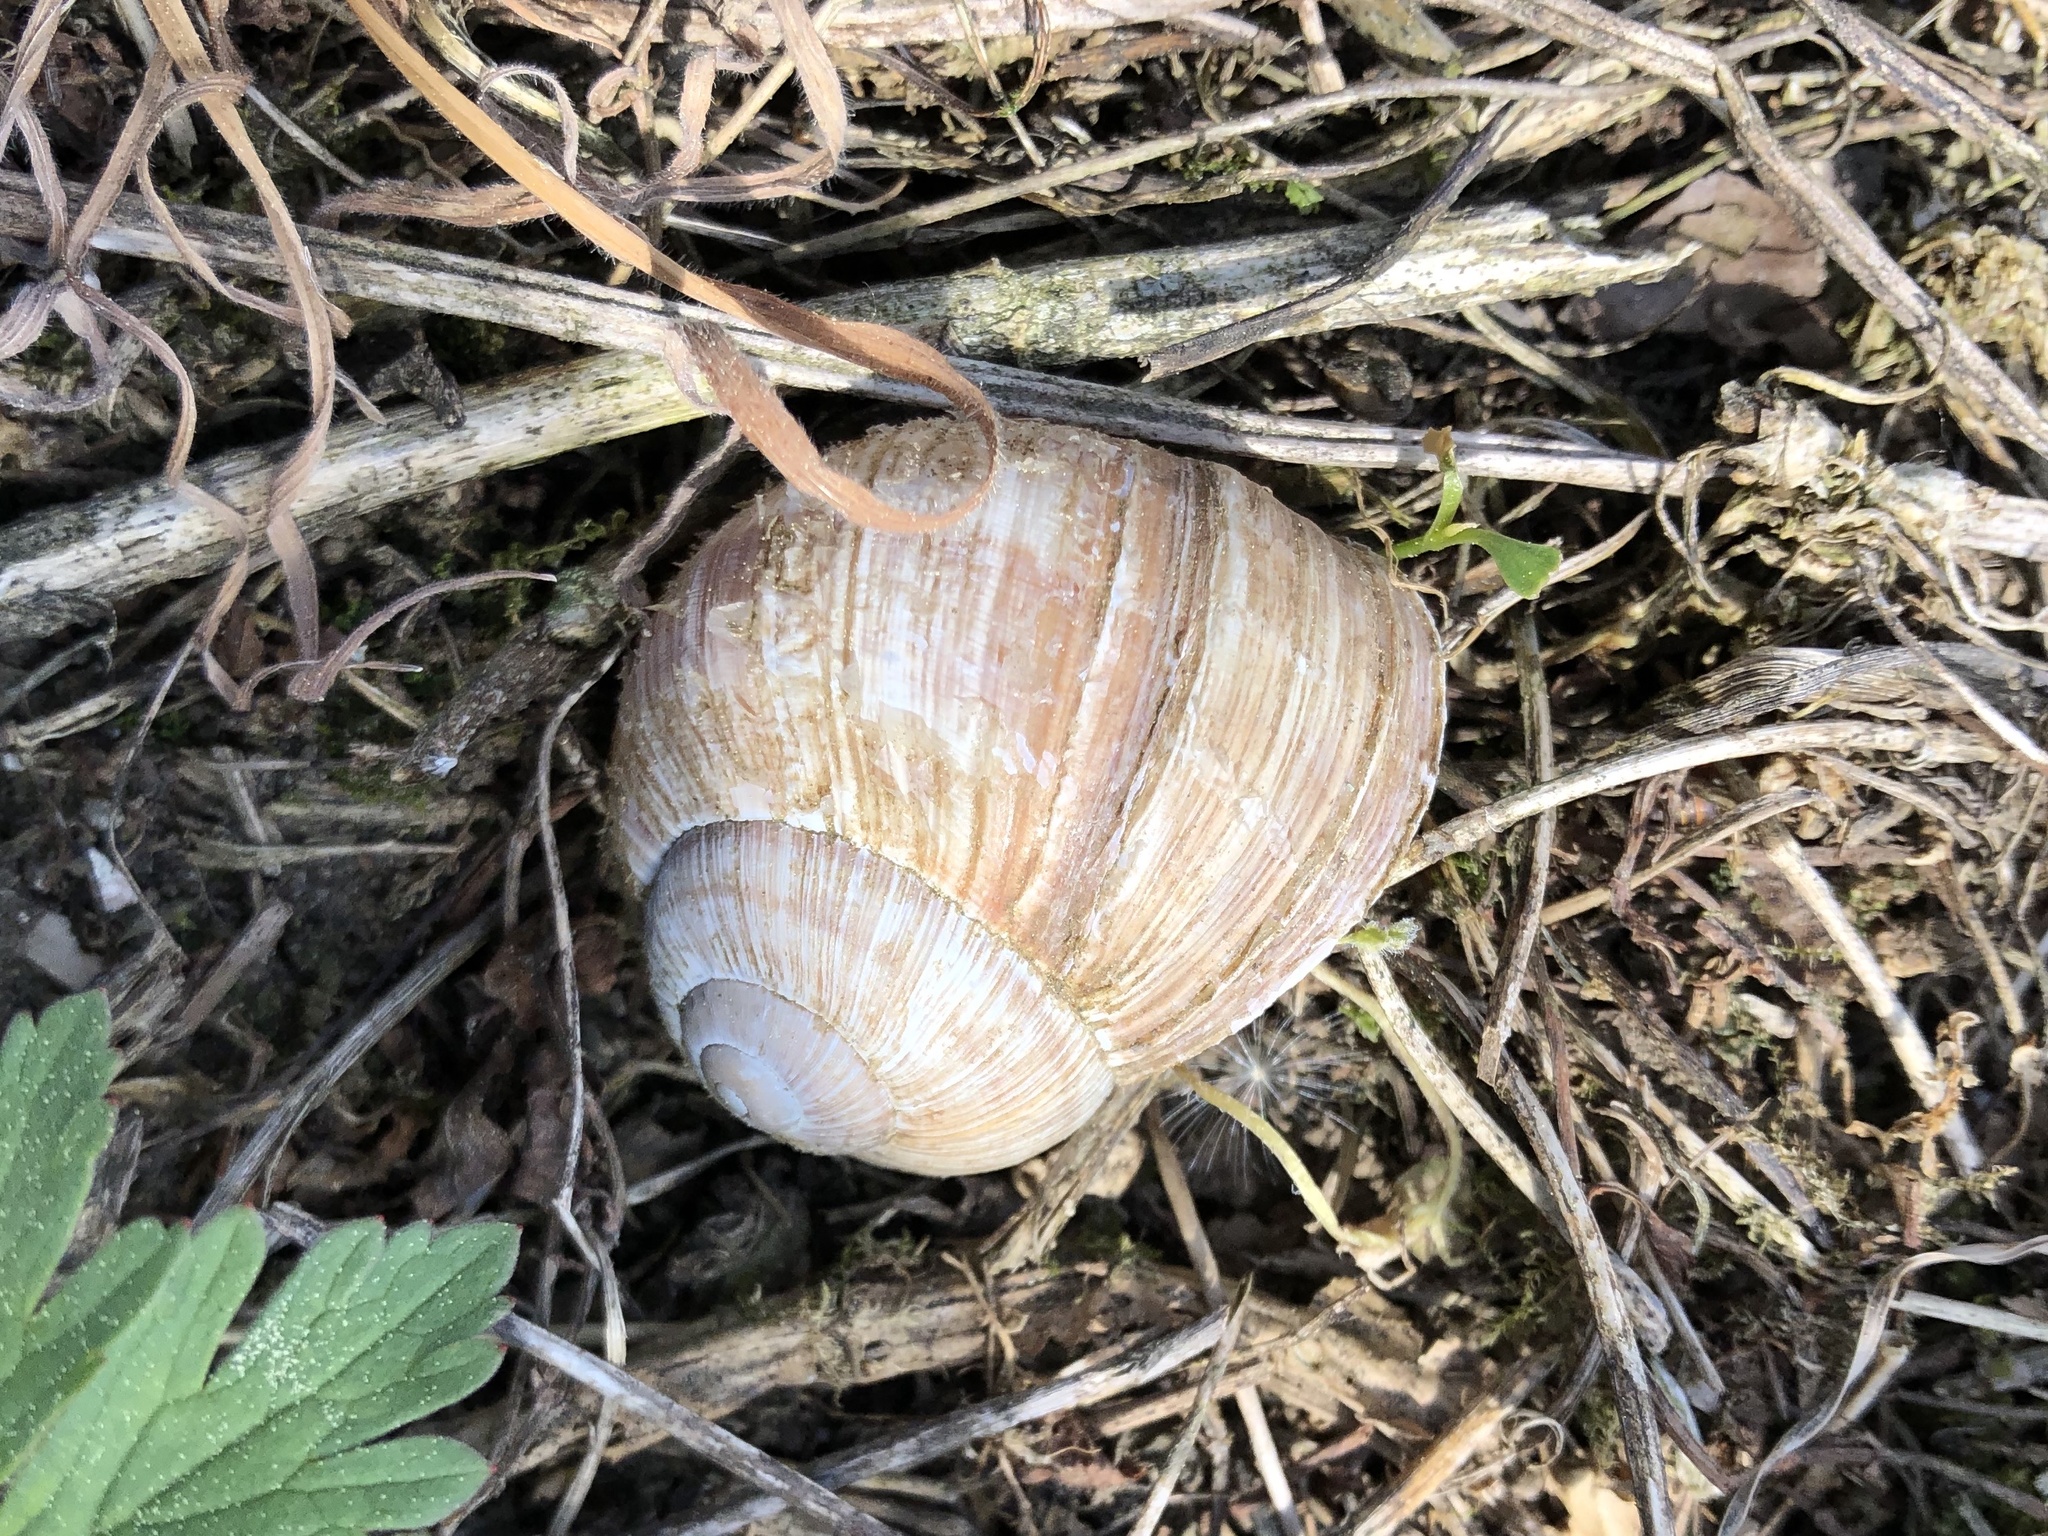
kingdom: Animalia
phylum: Mollusca
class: Gastropoda
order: Stylommatophora
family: Helicidae
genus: Helix
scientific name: Helix pomatia
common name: Roman snail
